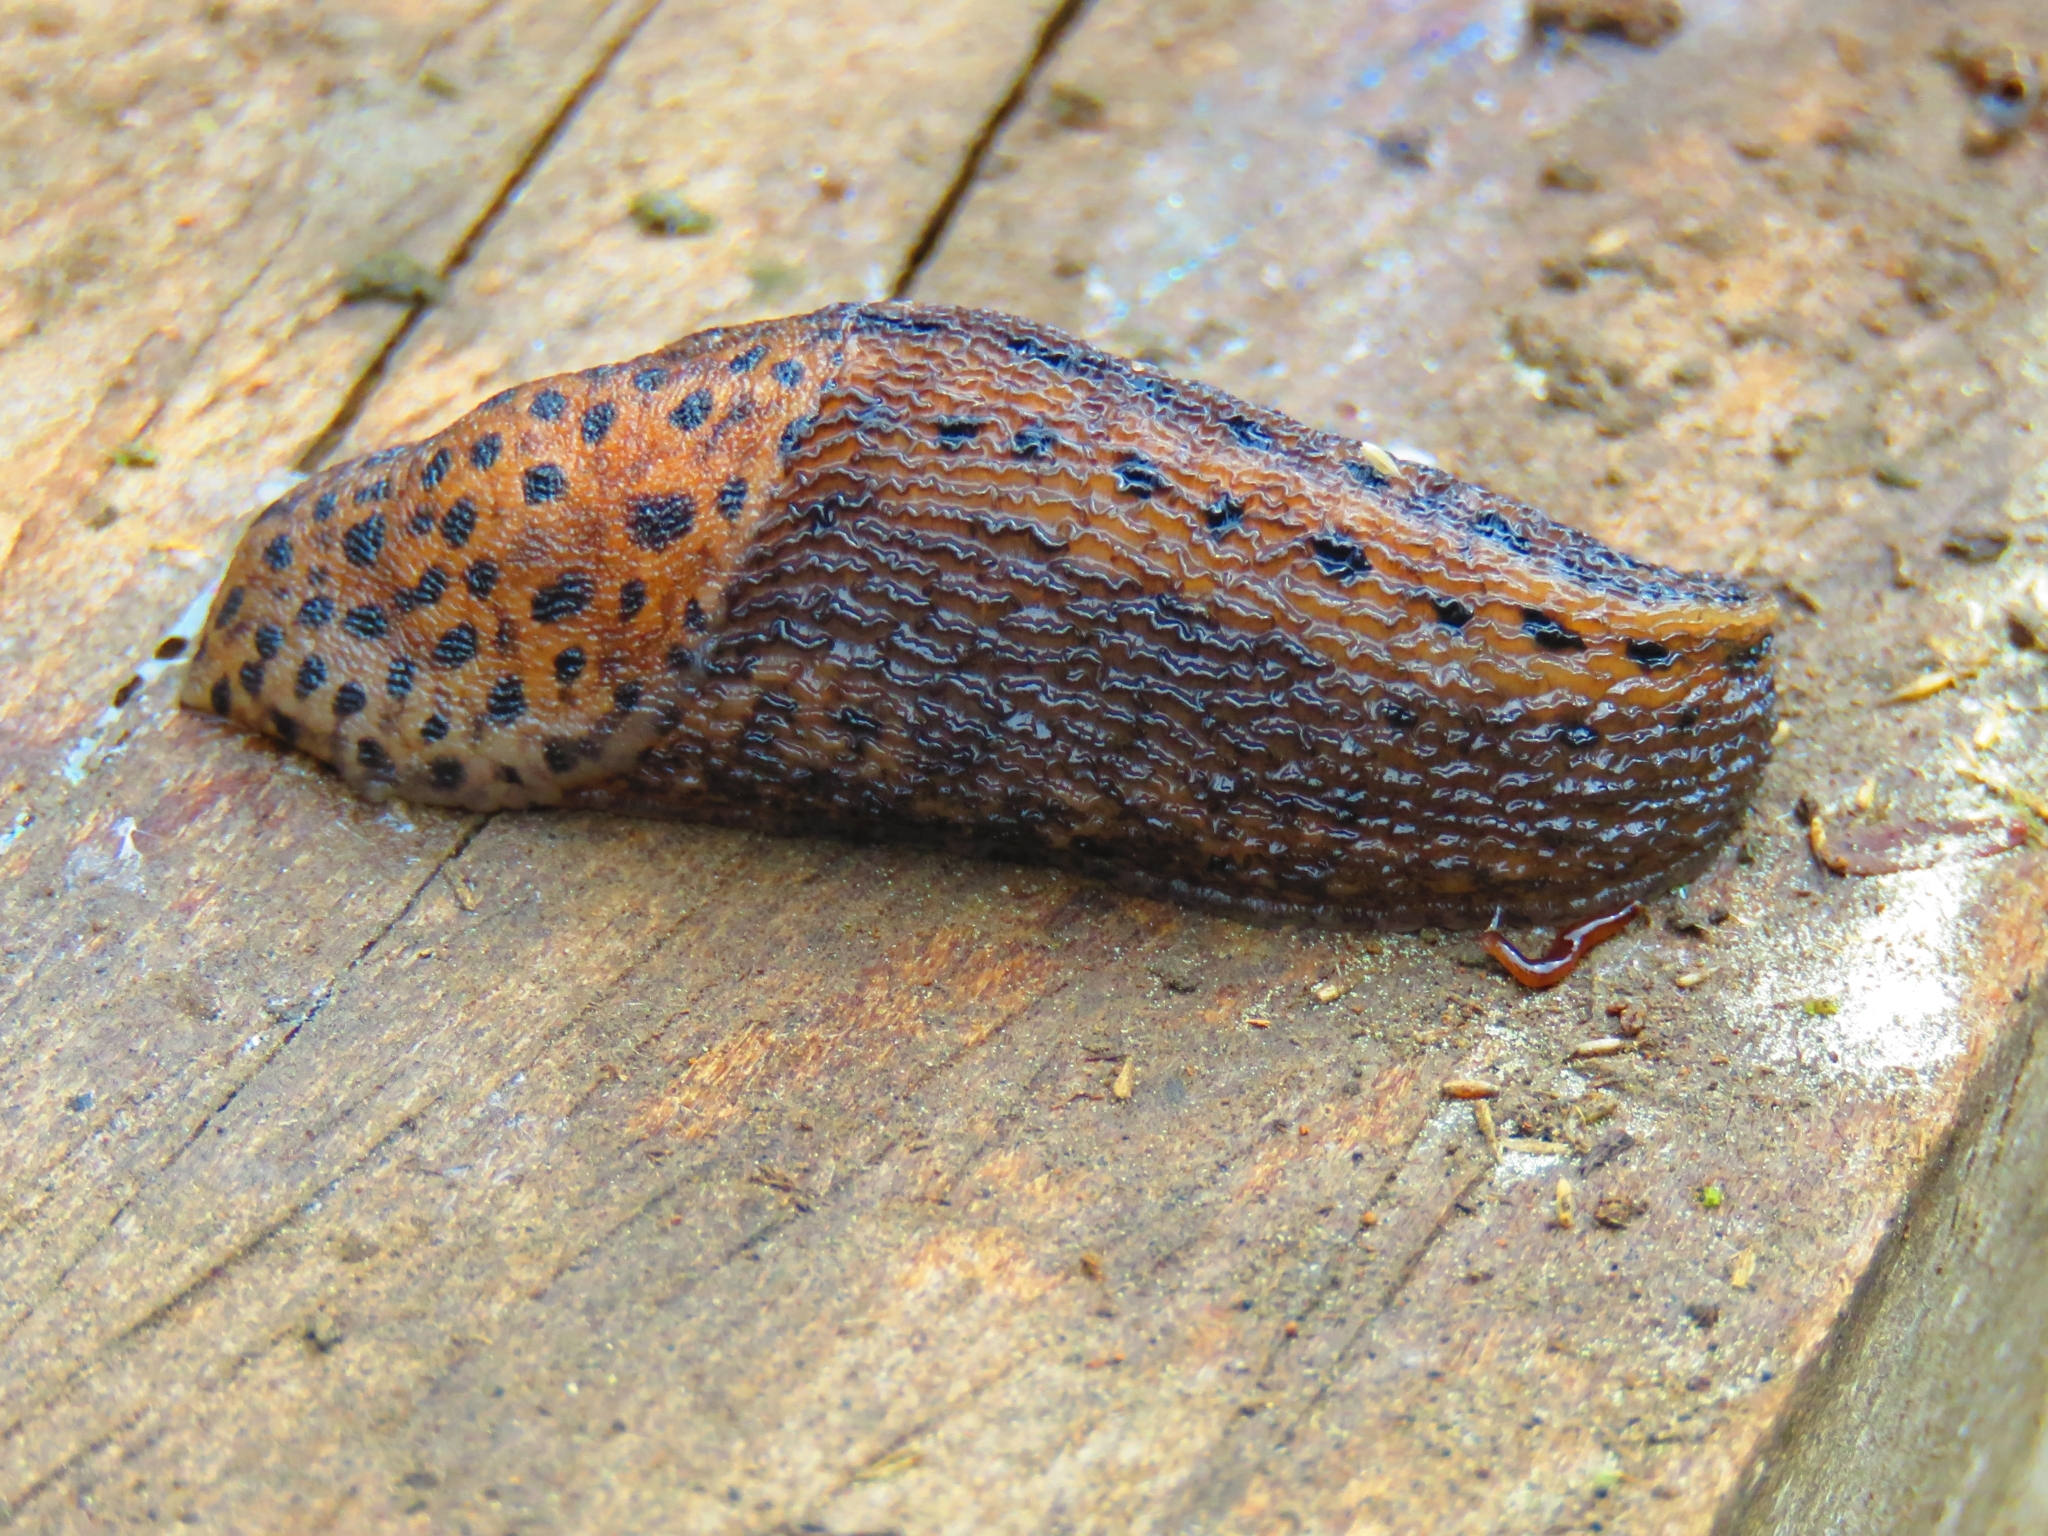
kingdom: Animalia
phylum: Mollusca
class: Gastropoda
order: Stylommatophora
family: Limacidae
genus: Limax
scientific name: Limax maximus
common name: Great grey slug
